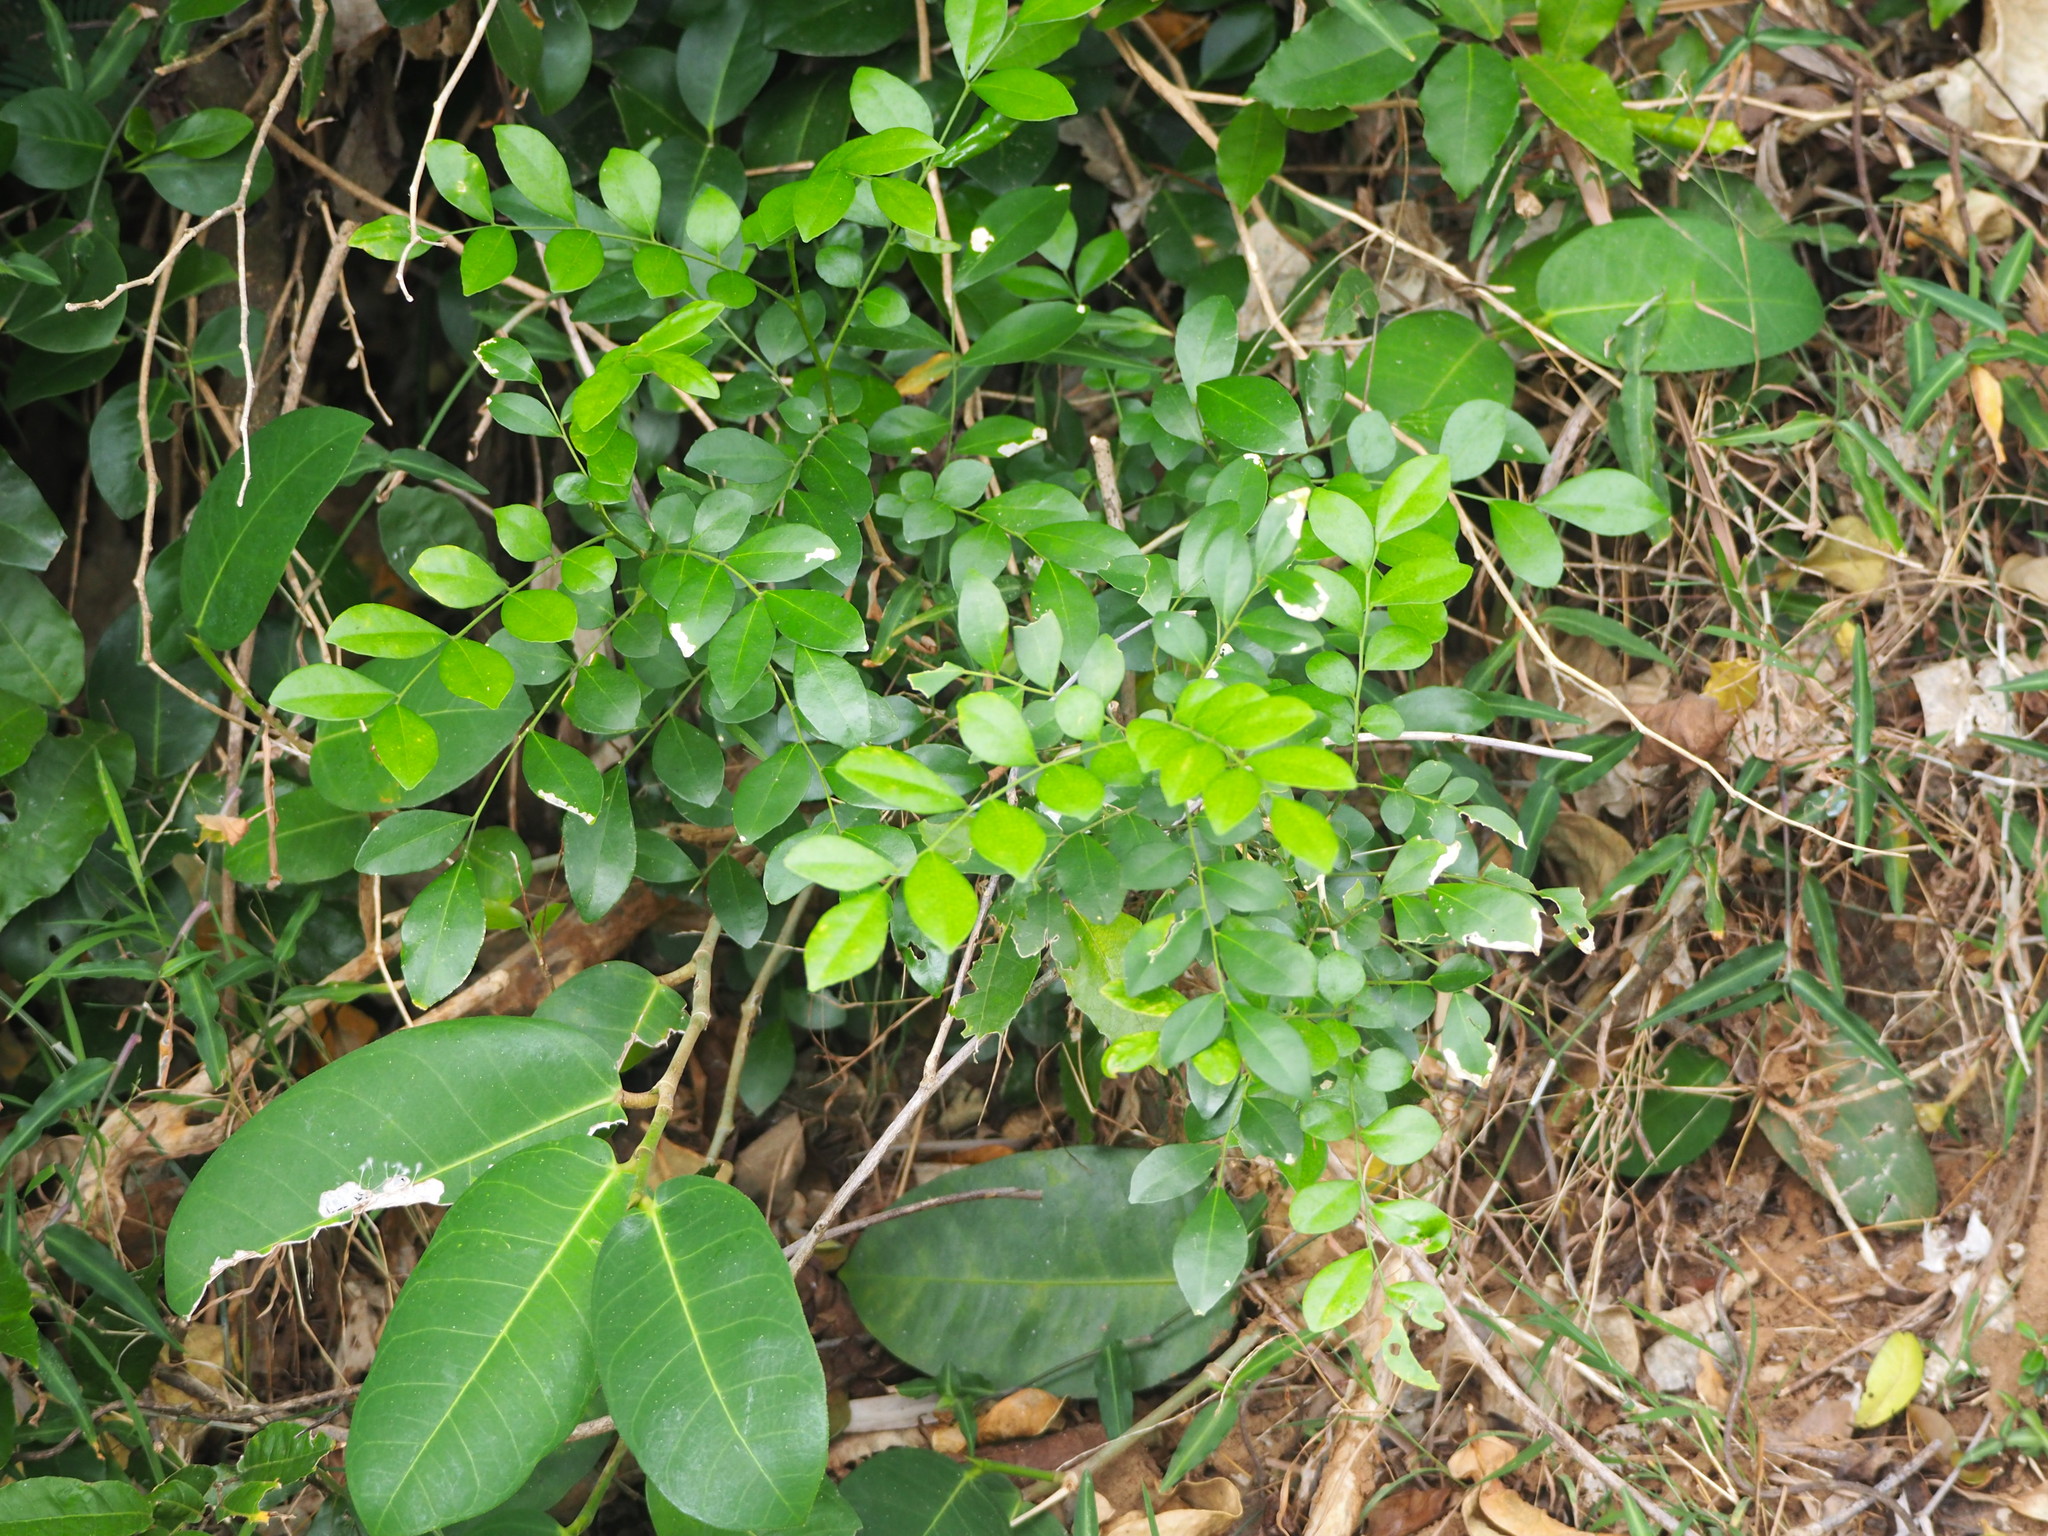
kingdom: Plantae
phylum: Tracheophyta
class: Magnoliopsida
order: Sapindales
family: Rutaceae
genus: Murraya
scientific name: Murraya paniculata
